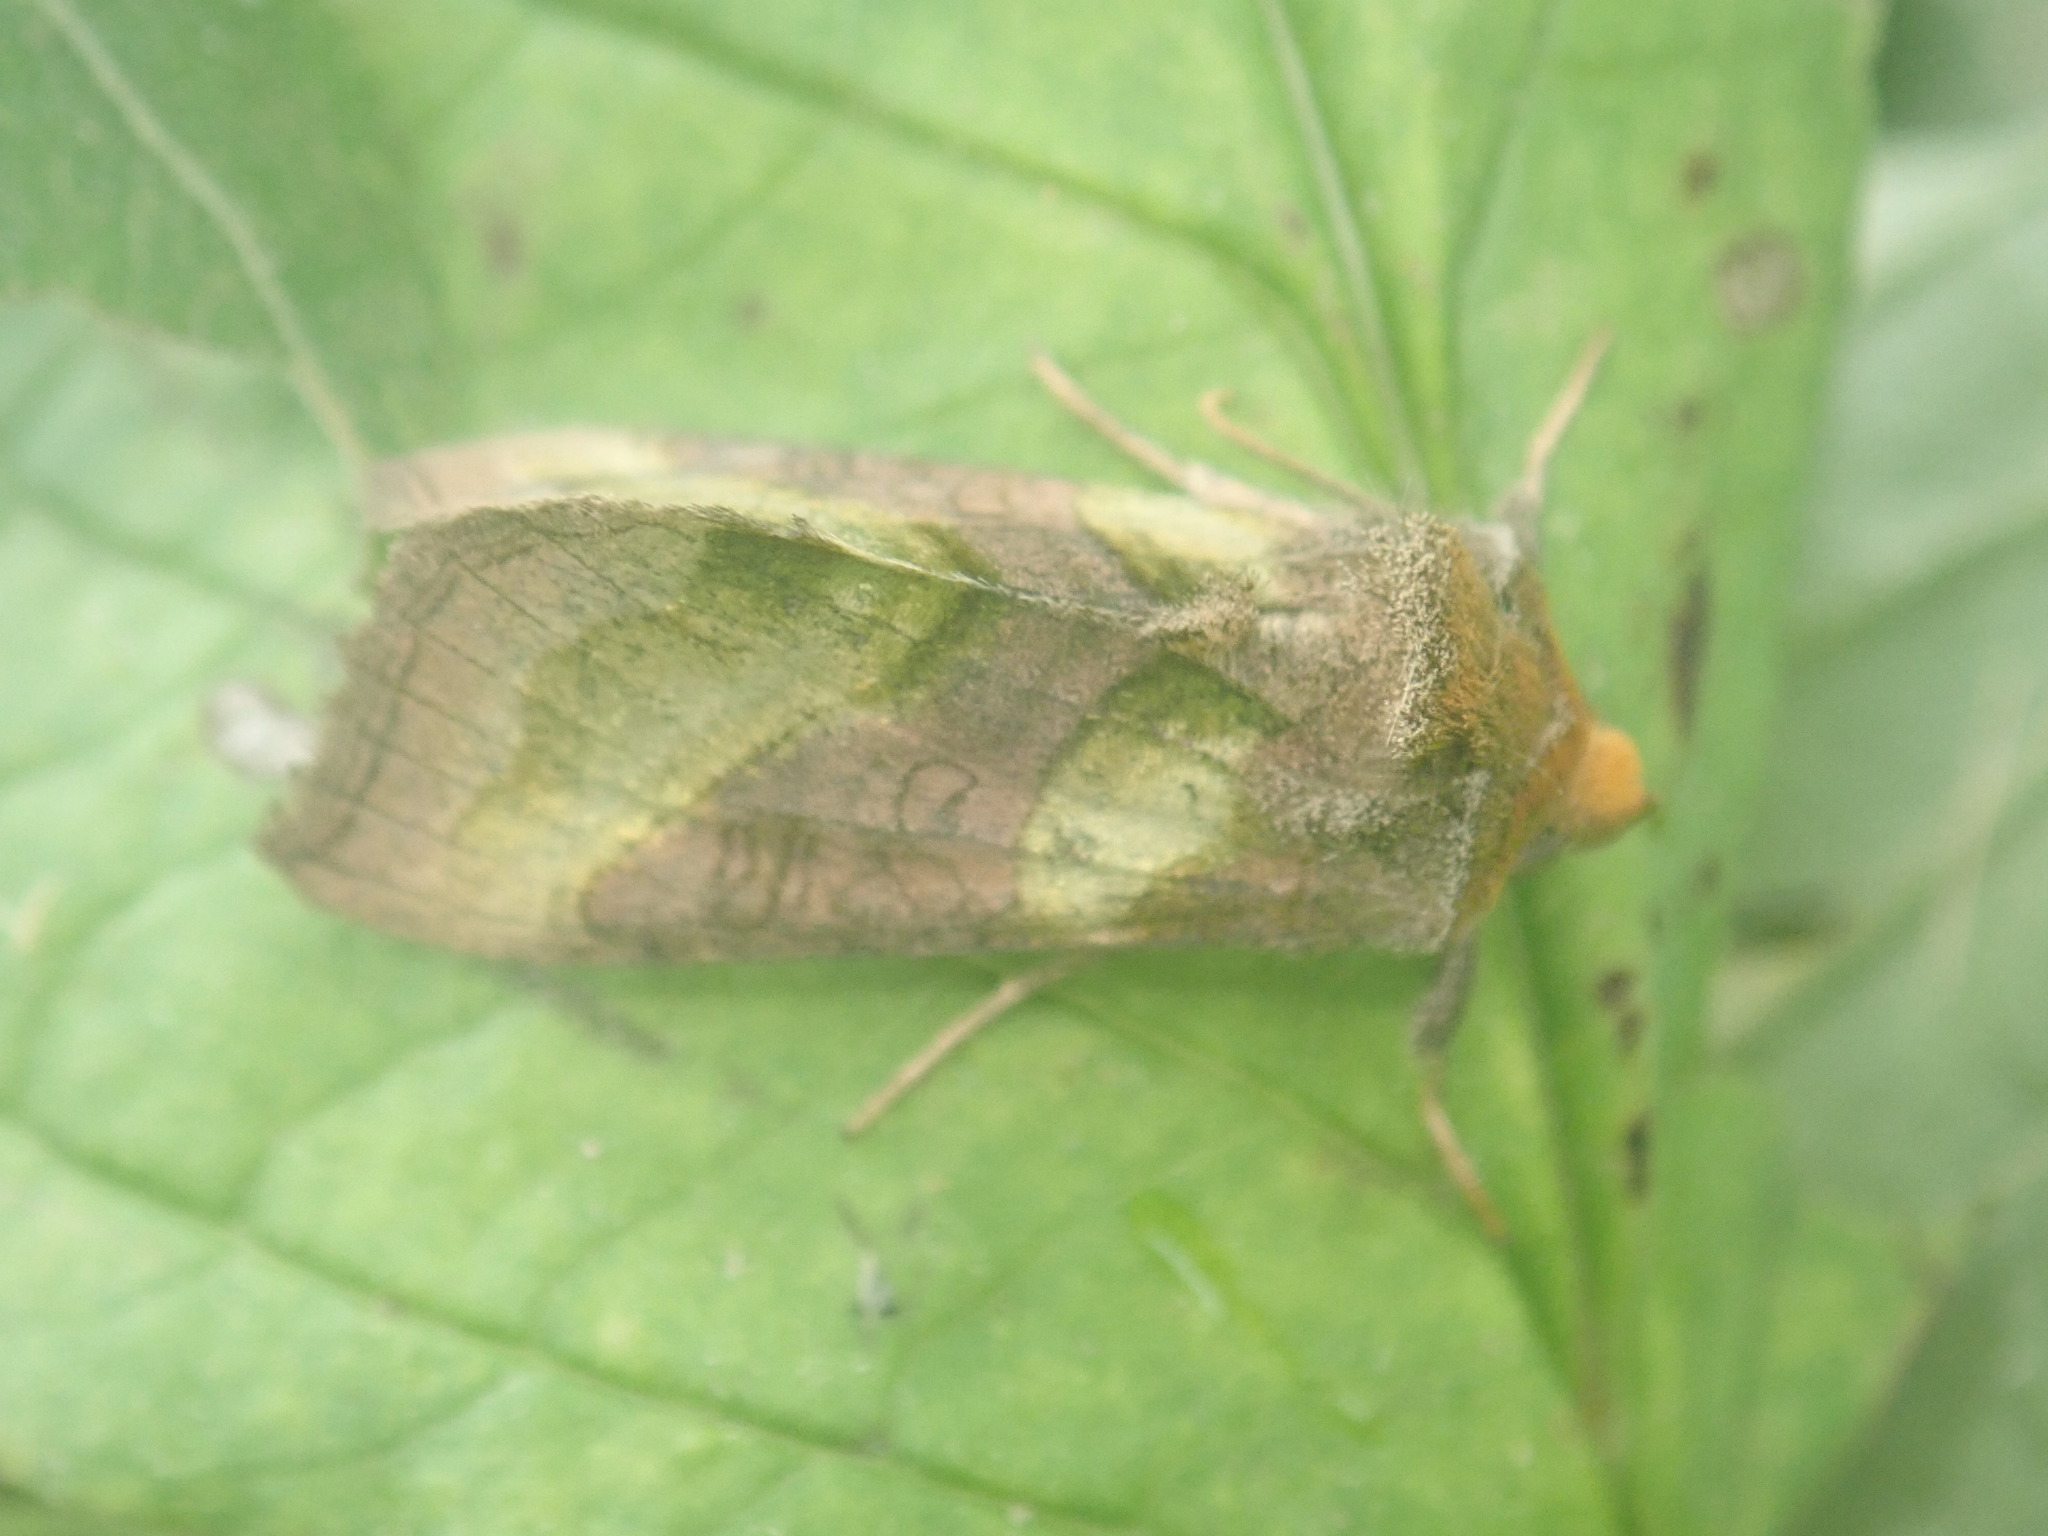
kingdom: Animalia
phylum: Arthropoda
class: Insecta
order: Lepidoptera
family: Noctuidae
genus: Diachrysia
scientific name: Diachrysia chrysitis
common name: Burnished brass
